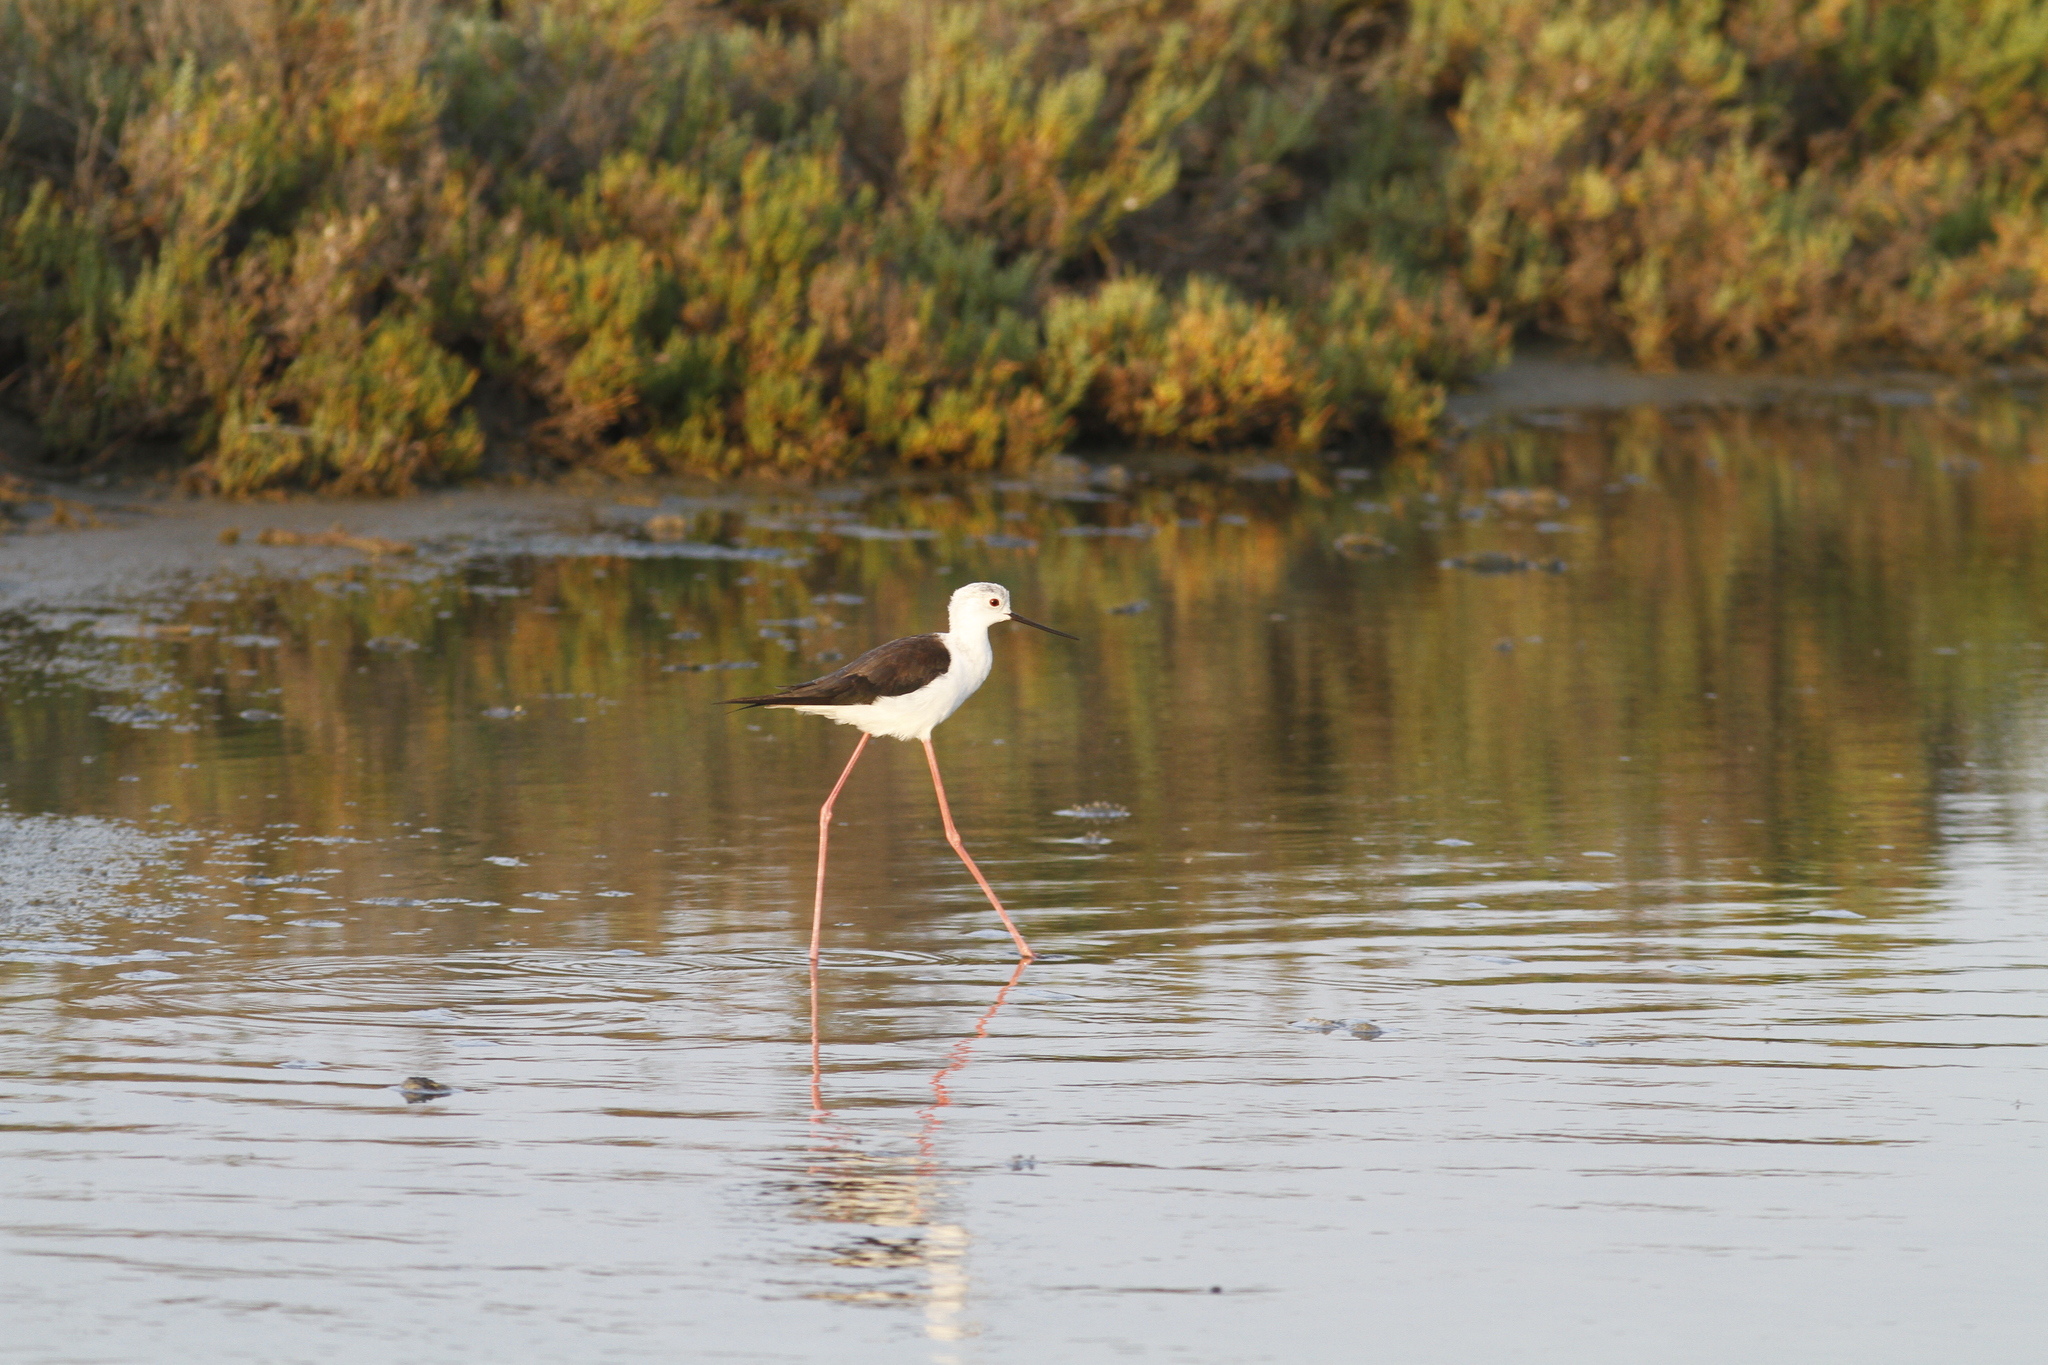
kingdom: Animalia
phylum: Chordata
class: Aves
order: Charadriiformes
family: Recurvirostridae
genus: Himantopus
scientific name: Himantopus himantopus
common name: Black-winged stilt
